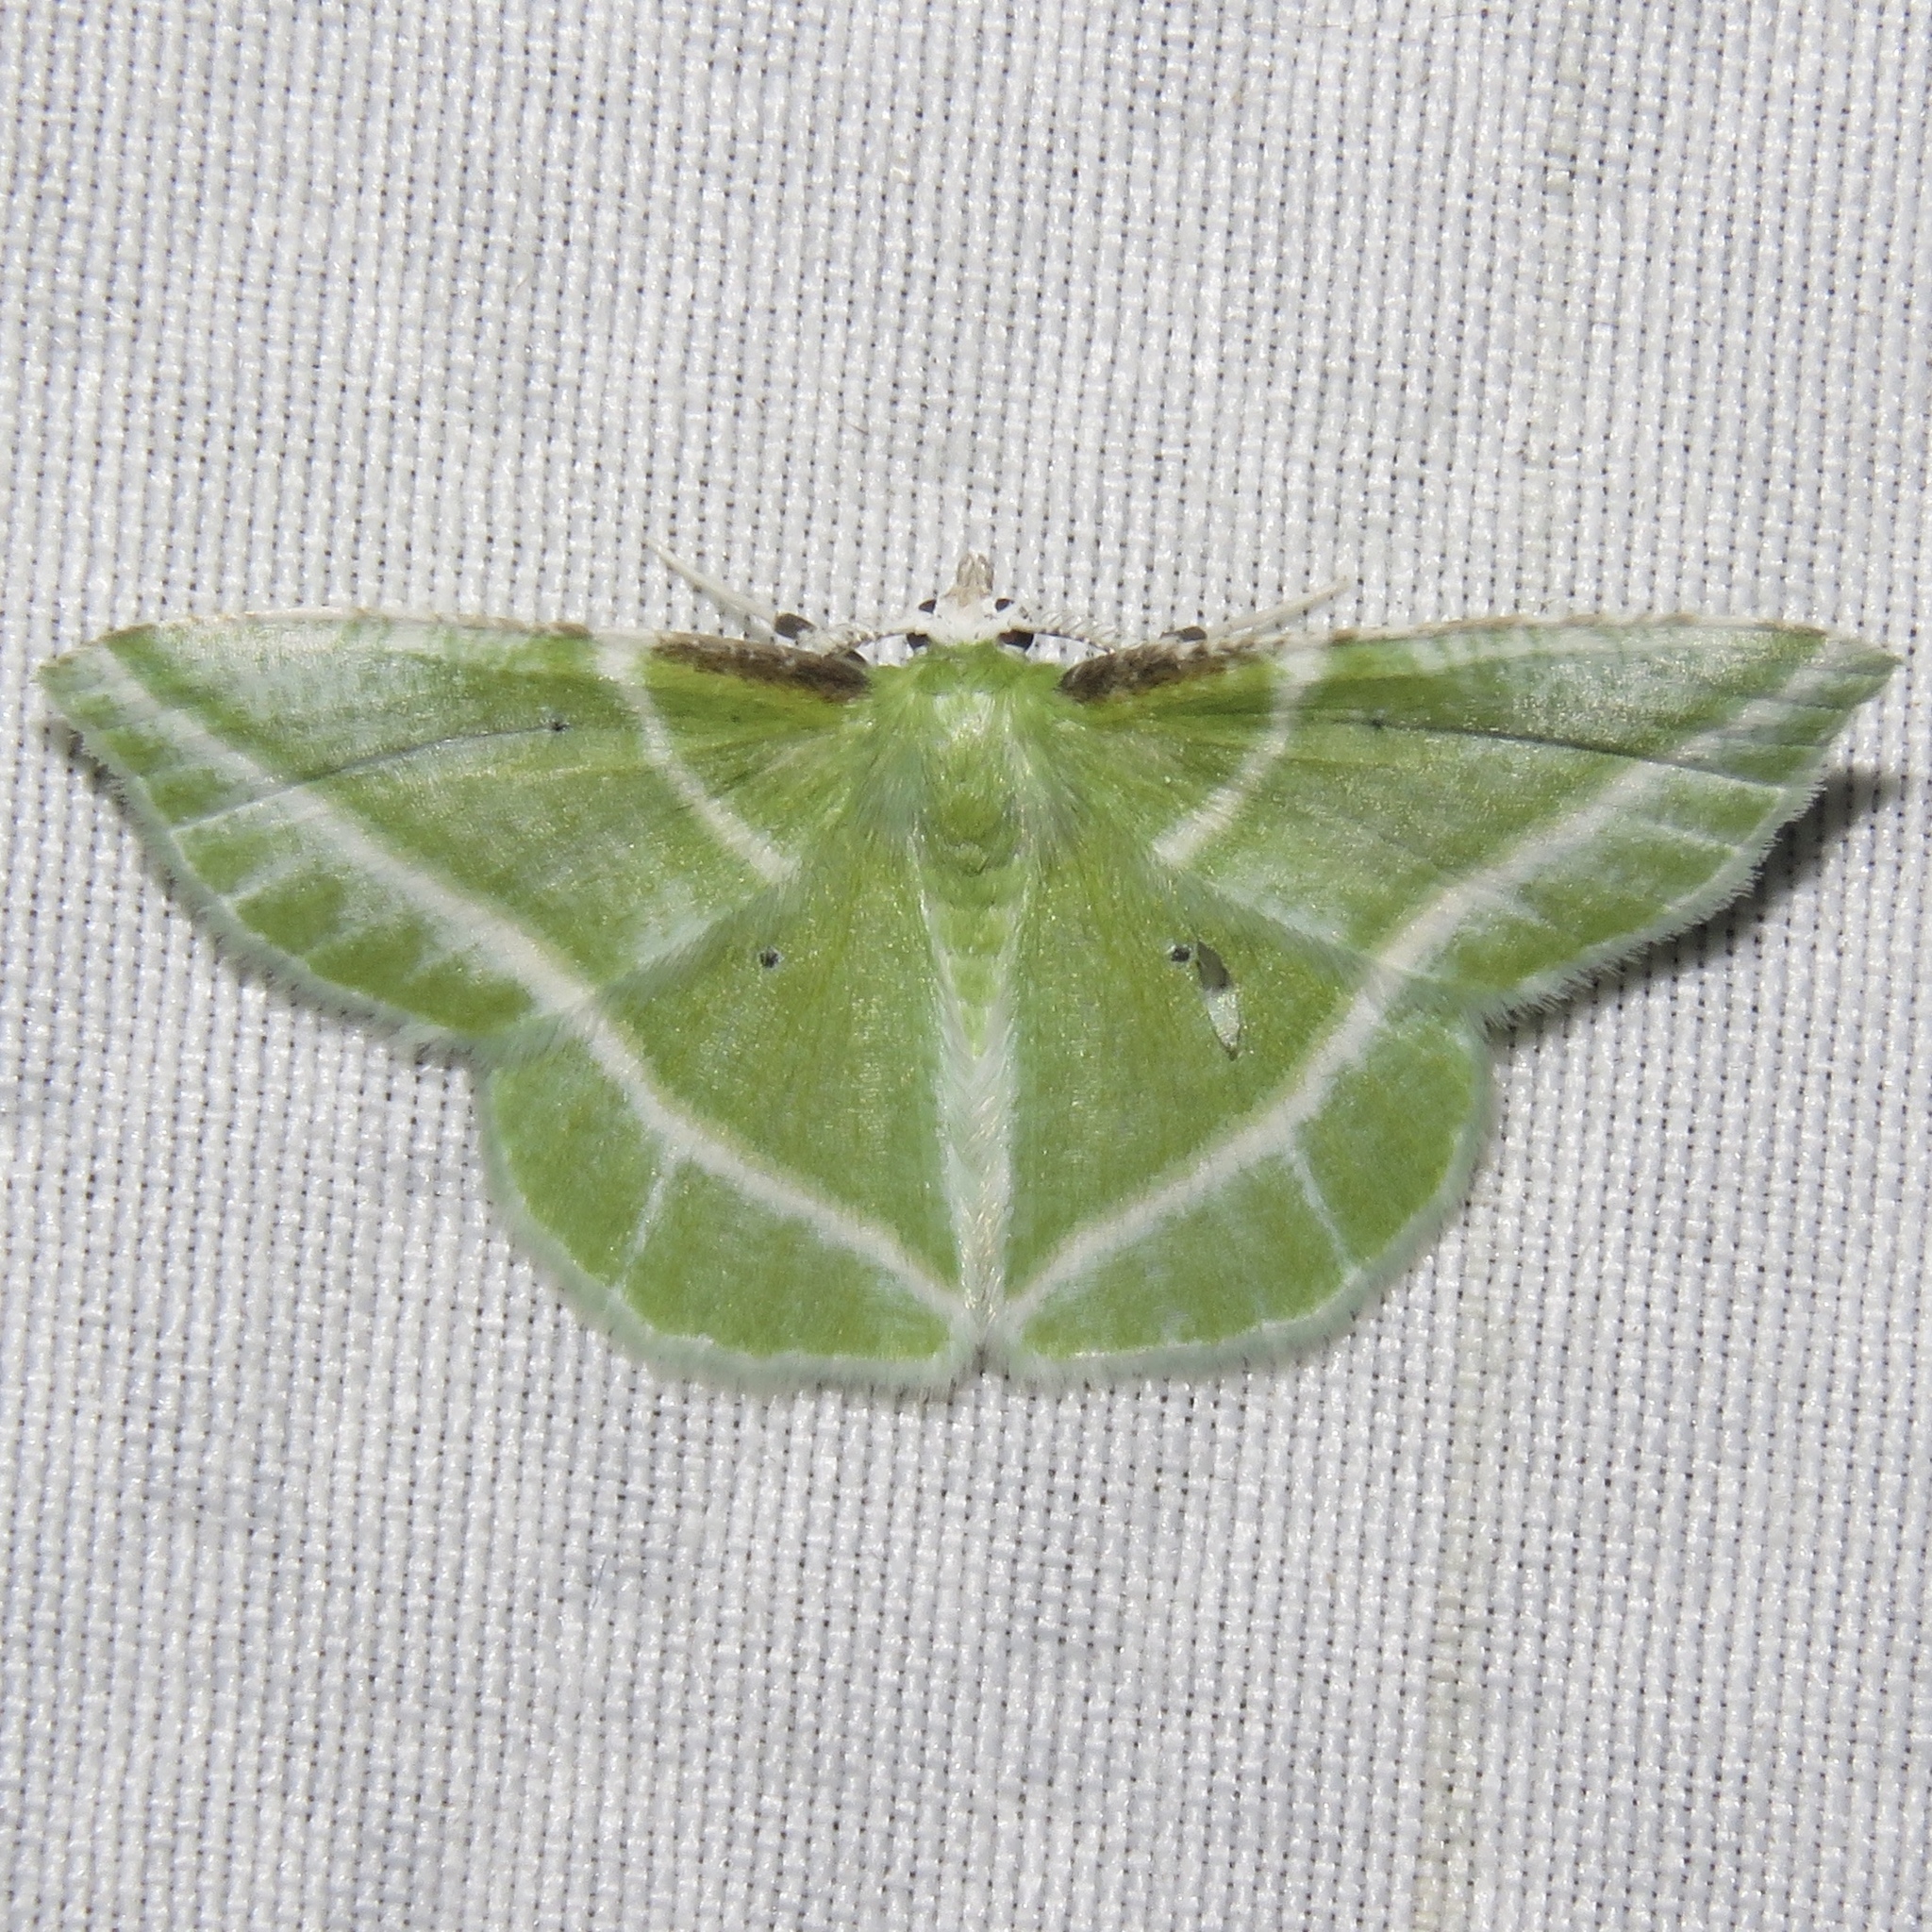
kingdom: Animalia
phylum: Arthropoda
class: Insecta
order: Lepidoptera
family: Geometridae
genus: Dichorda
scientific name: Dichorda iridaria
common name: Showy emerald
